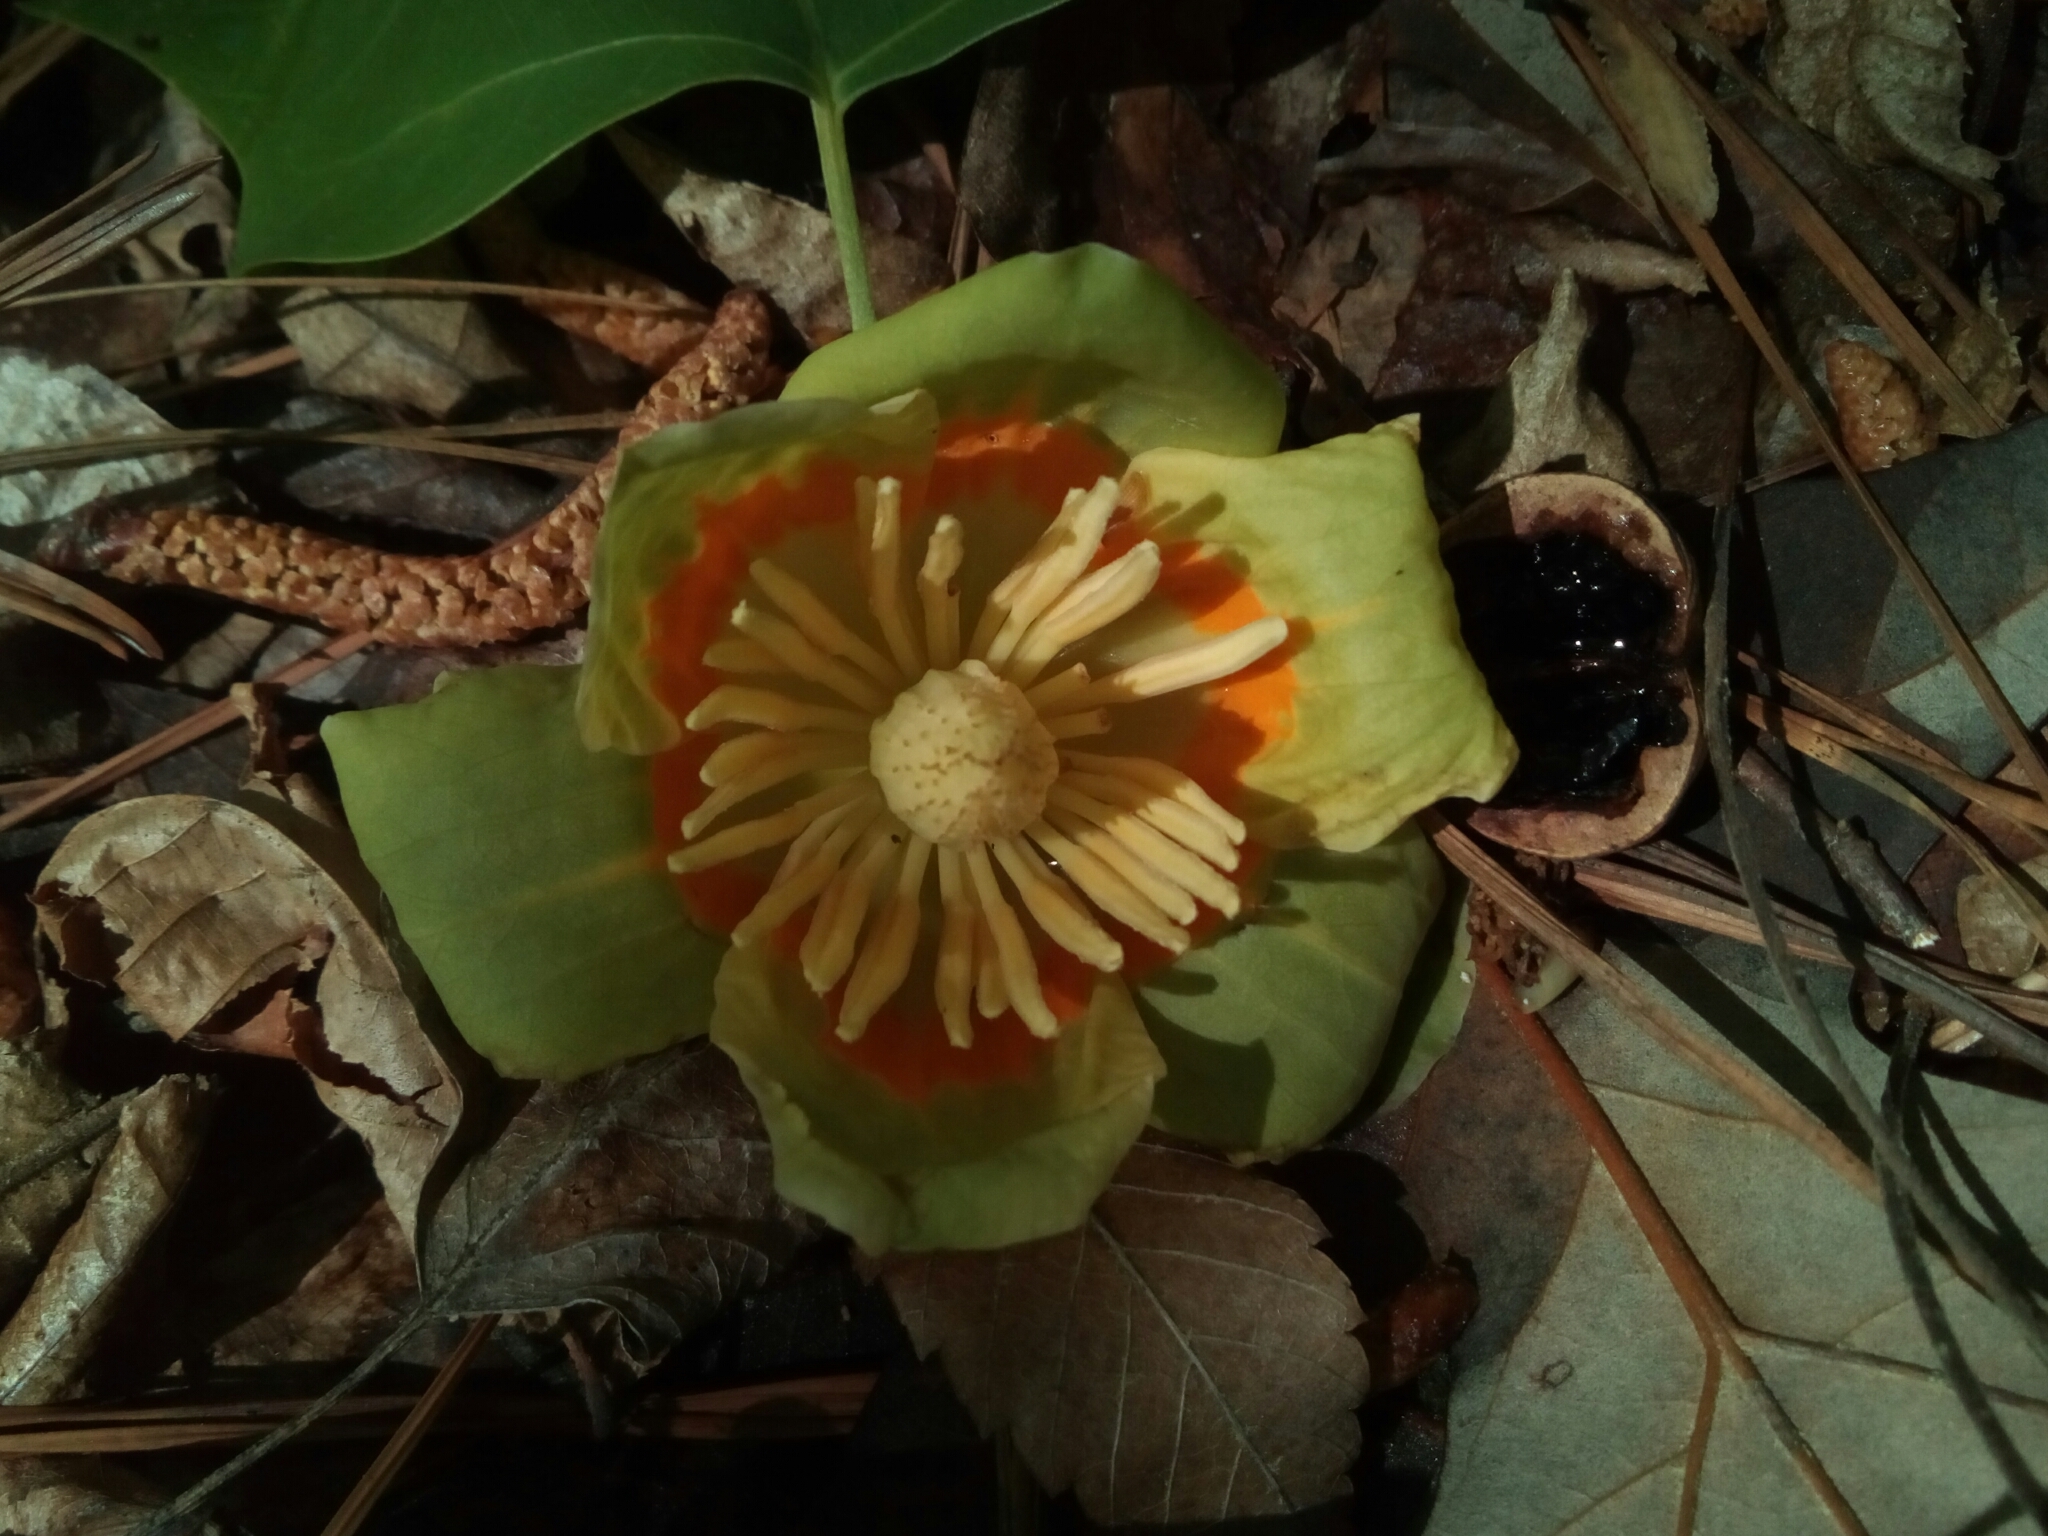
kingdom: Plantae
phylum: Tracheophyta
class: Magnoliopsida
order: Magnoliales
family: Magnoliaceae
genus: Liriodendron
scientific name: Liriodendron tulipifera
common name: Tulip tree
